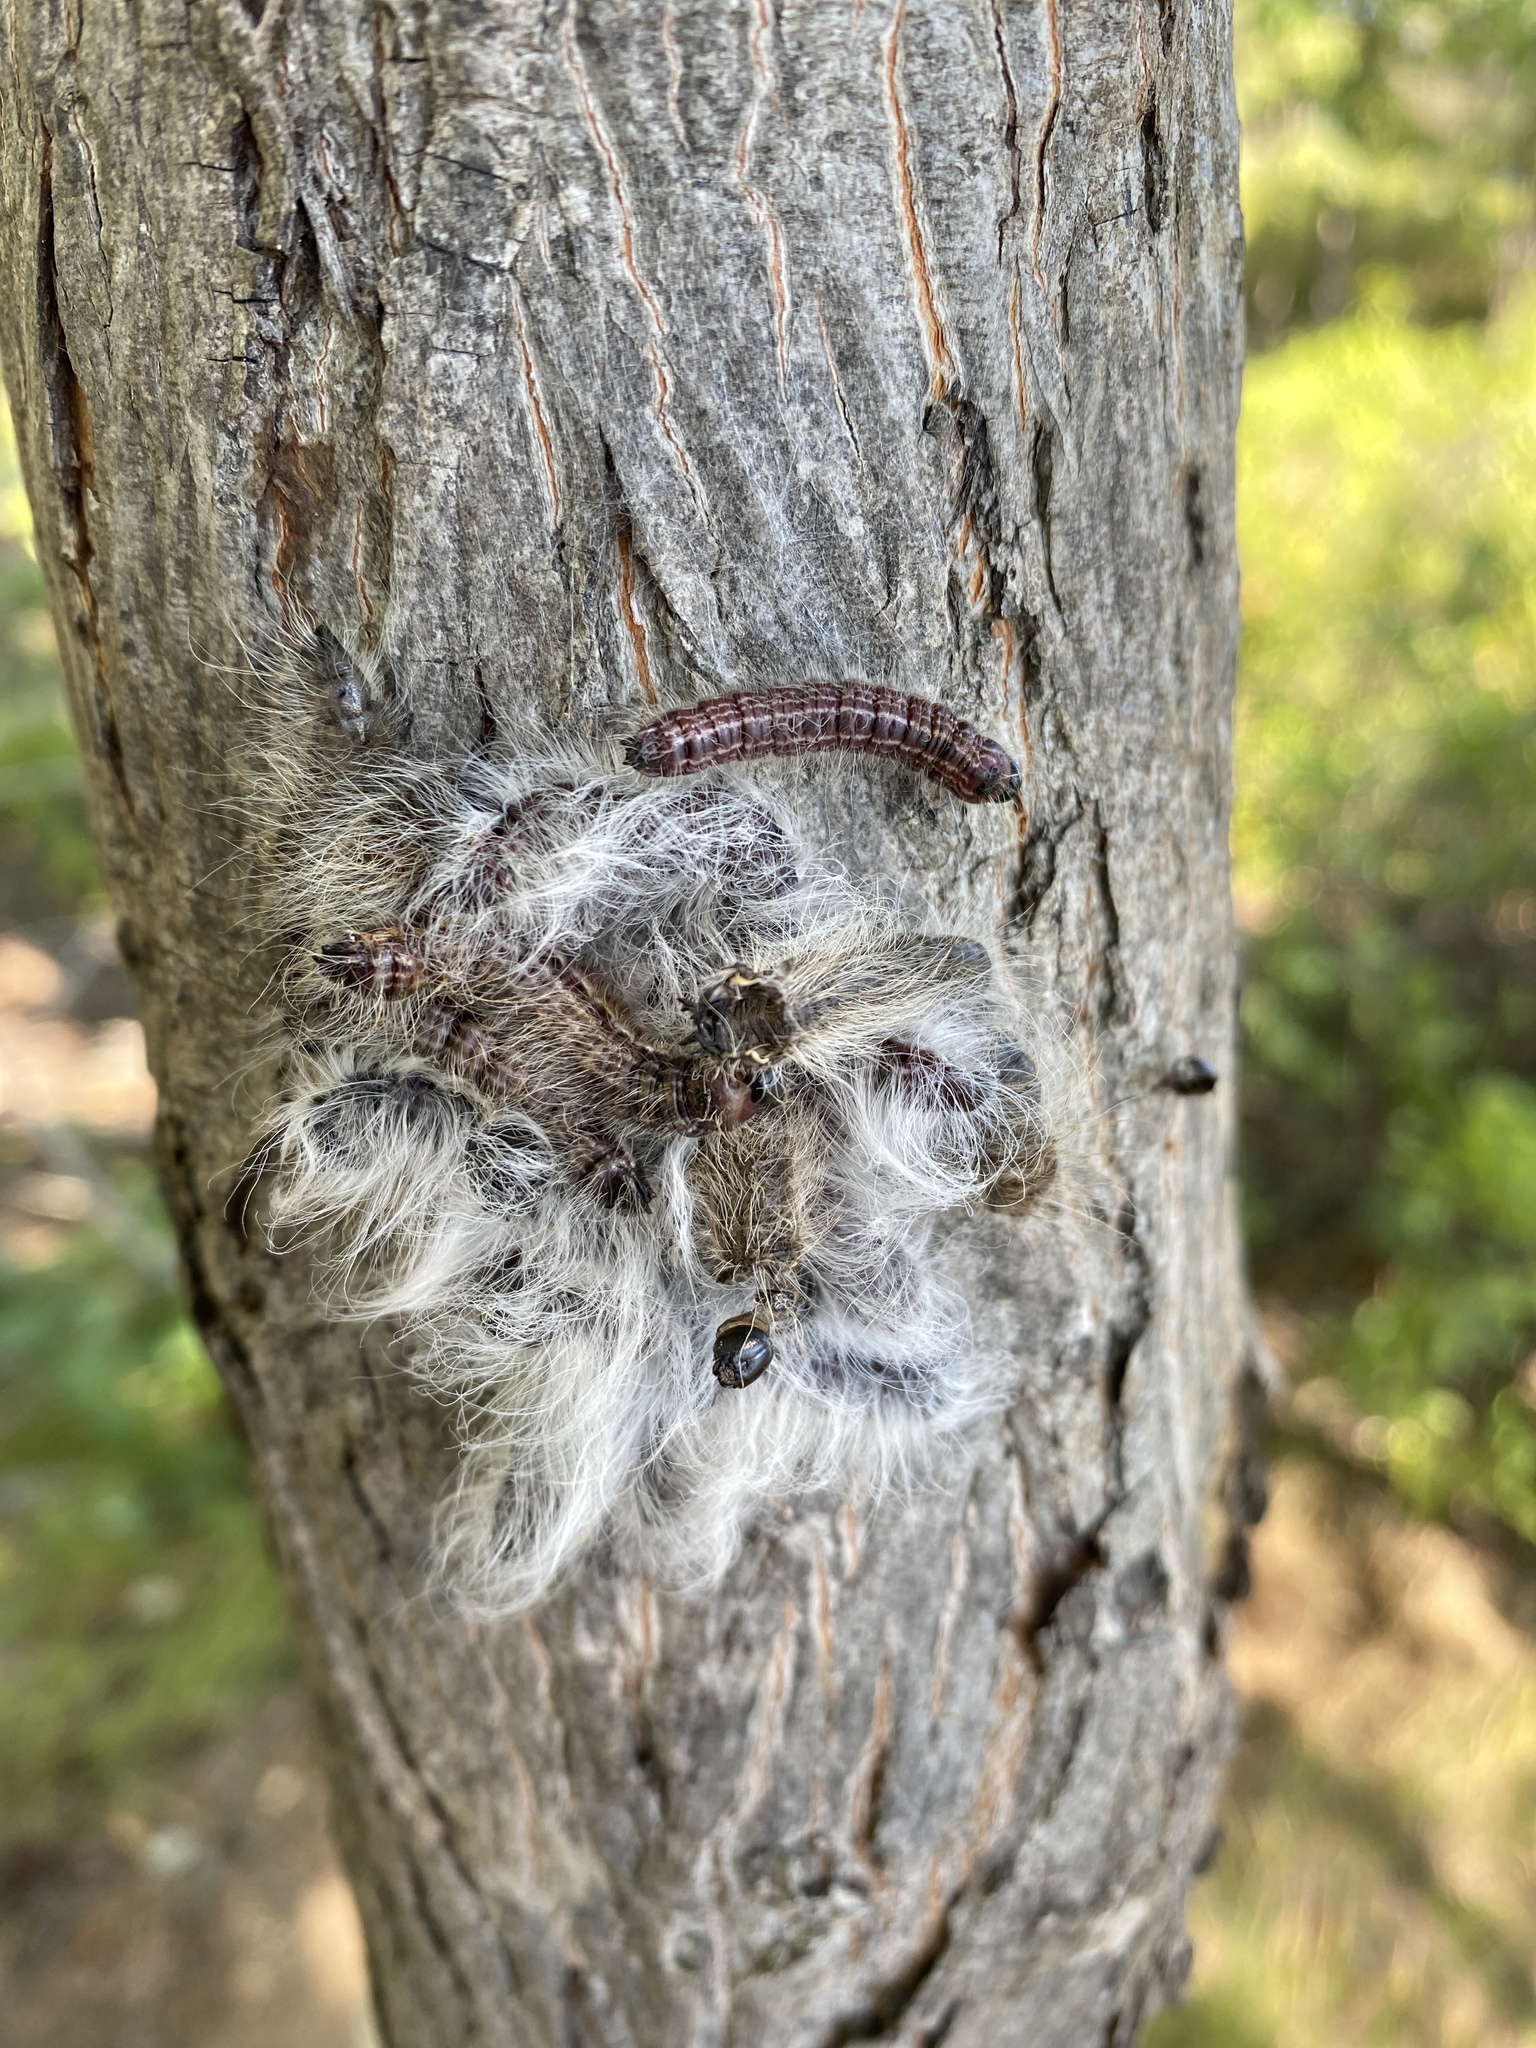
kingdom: Animalia
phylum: Arthropoda
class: Insecta
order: Lepidoptera
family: Notodontidae
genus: Datana
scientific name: Datana integerrima
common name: Walnut caterpillar
